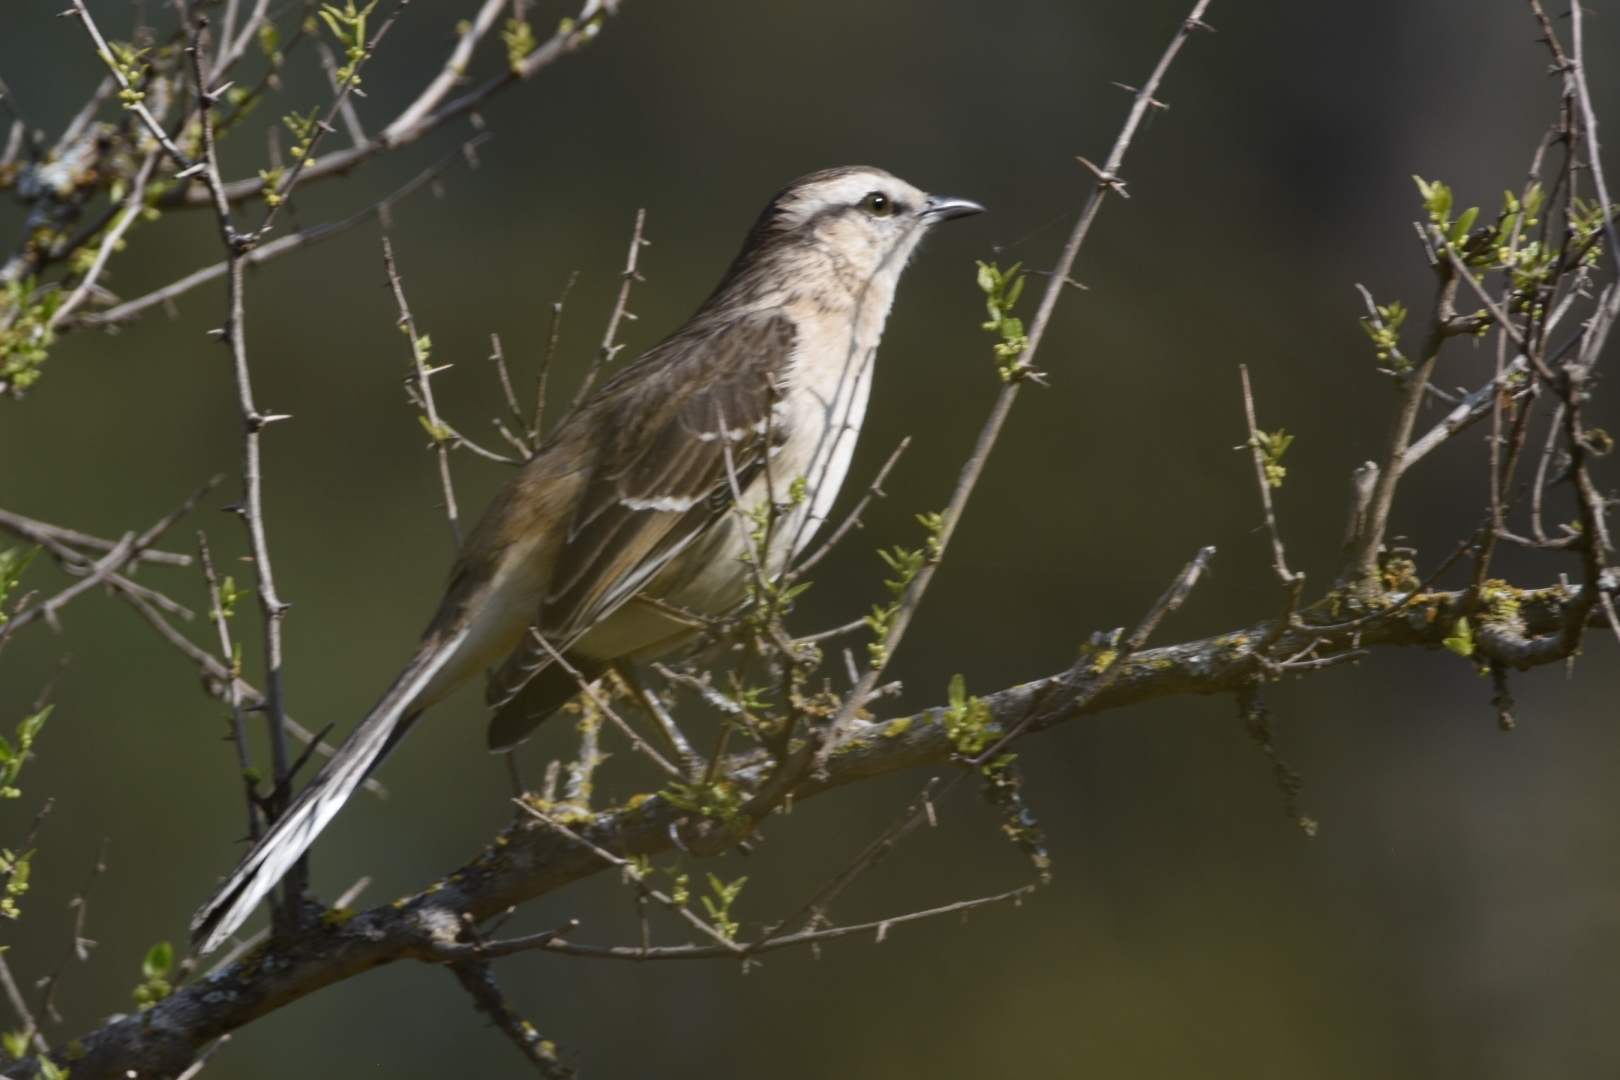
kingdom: Animalia
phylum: Chordata
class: Aves
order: Passeriformes
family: Mimidae
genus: Mimus
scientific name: Mimus saturninus
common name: Chalk-browed mockingbird
